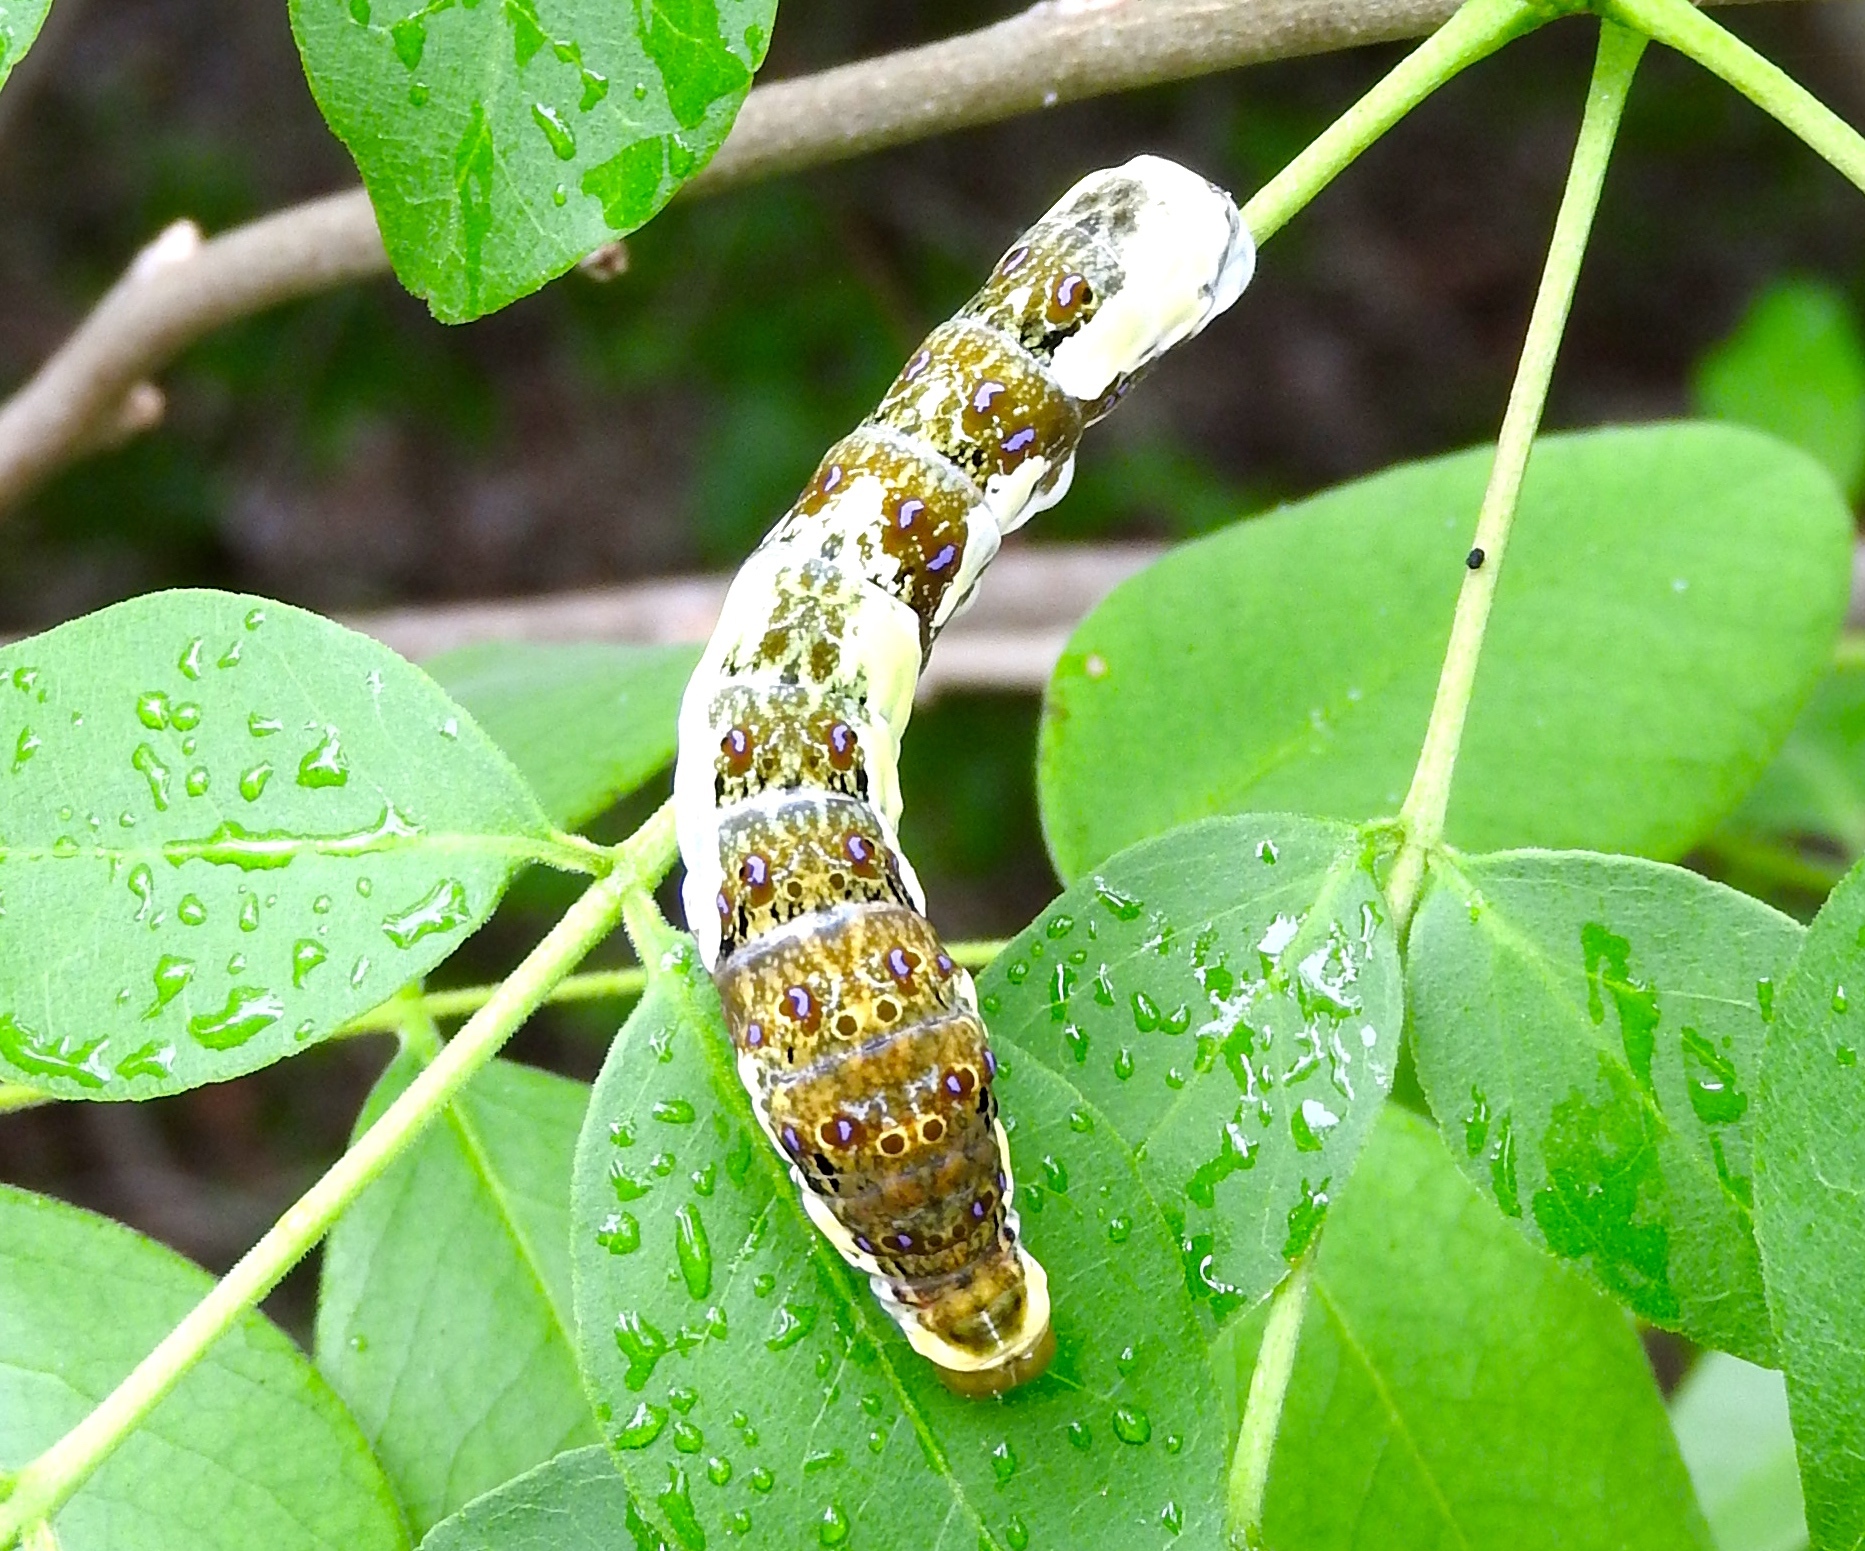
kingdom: Animalia
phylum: Arthropoda
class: Insecta
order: Lepidoptera
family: Papilionidae
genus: Heraclides
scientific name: Heraclides
